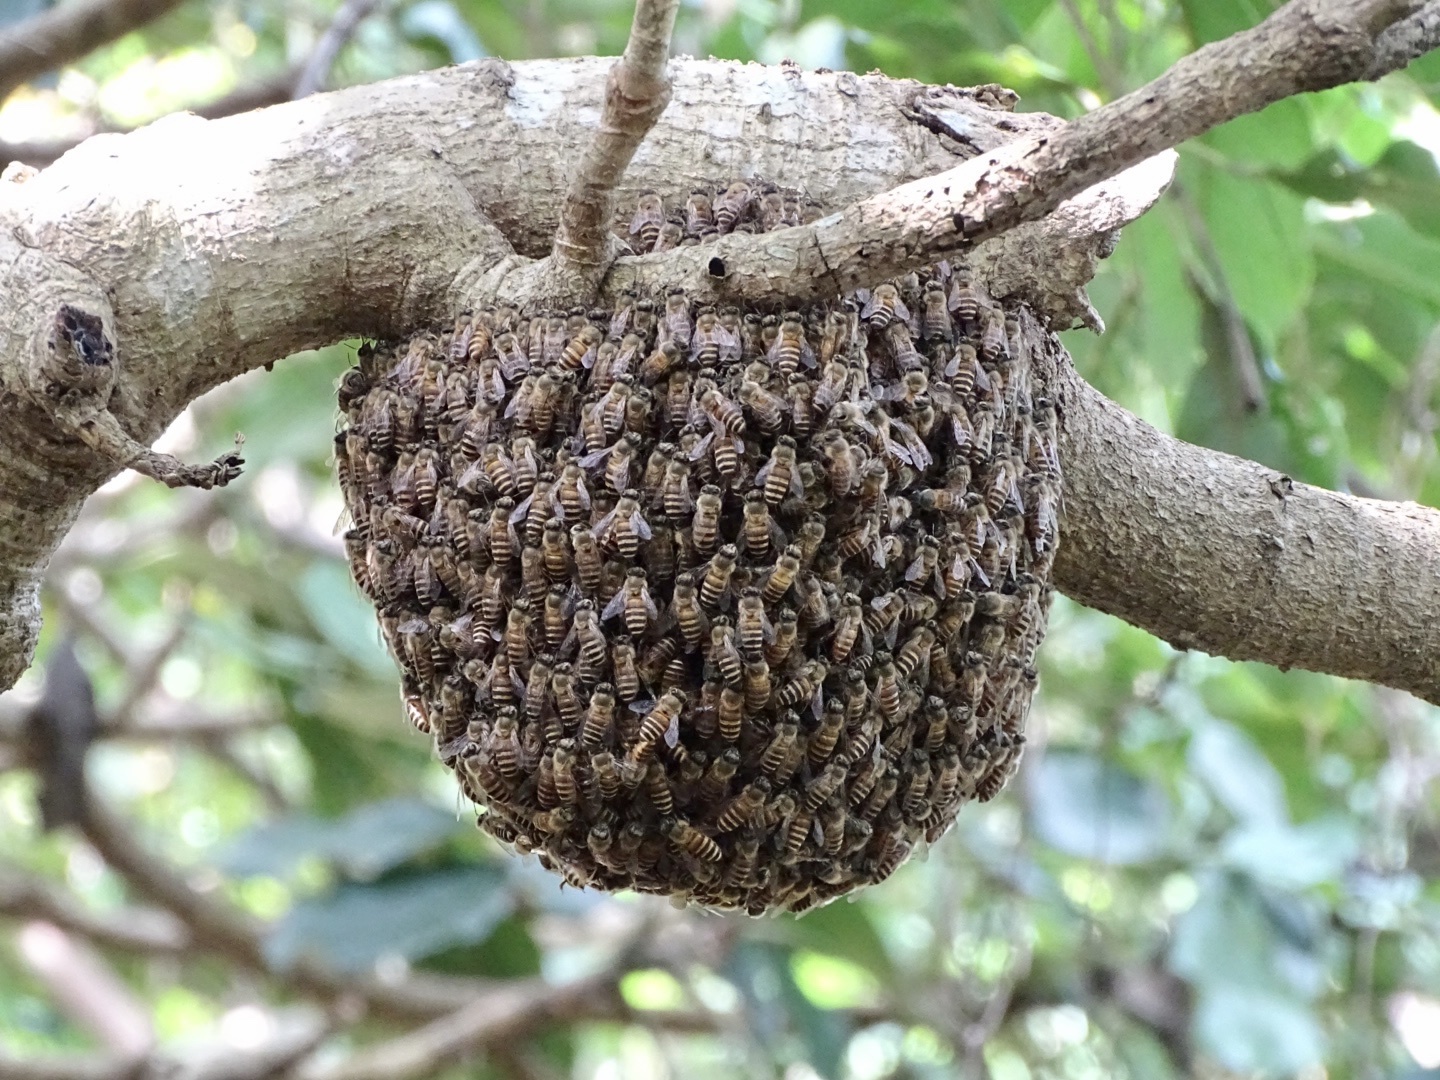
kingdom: Animalia
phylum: Arthropoda
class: Insecta
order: Hymenoptera
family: Apidae
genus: Apis
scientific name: Apis cerana
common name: Honey bee
